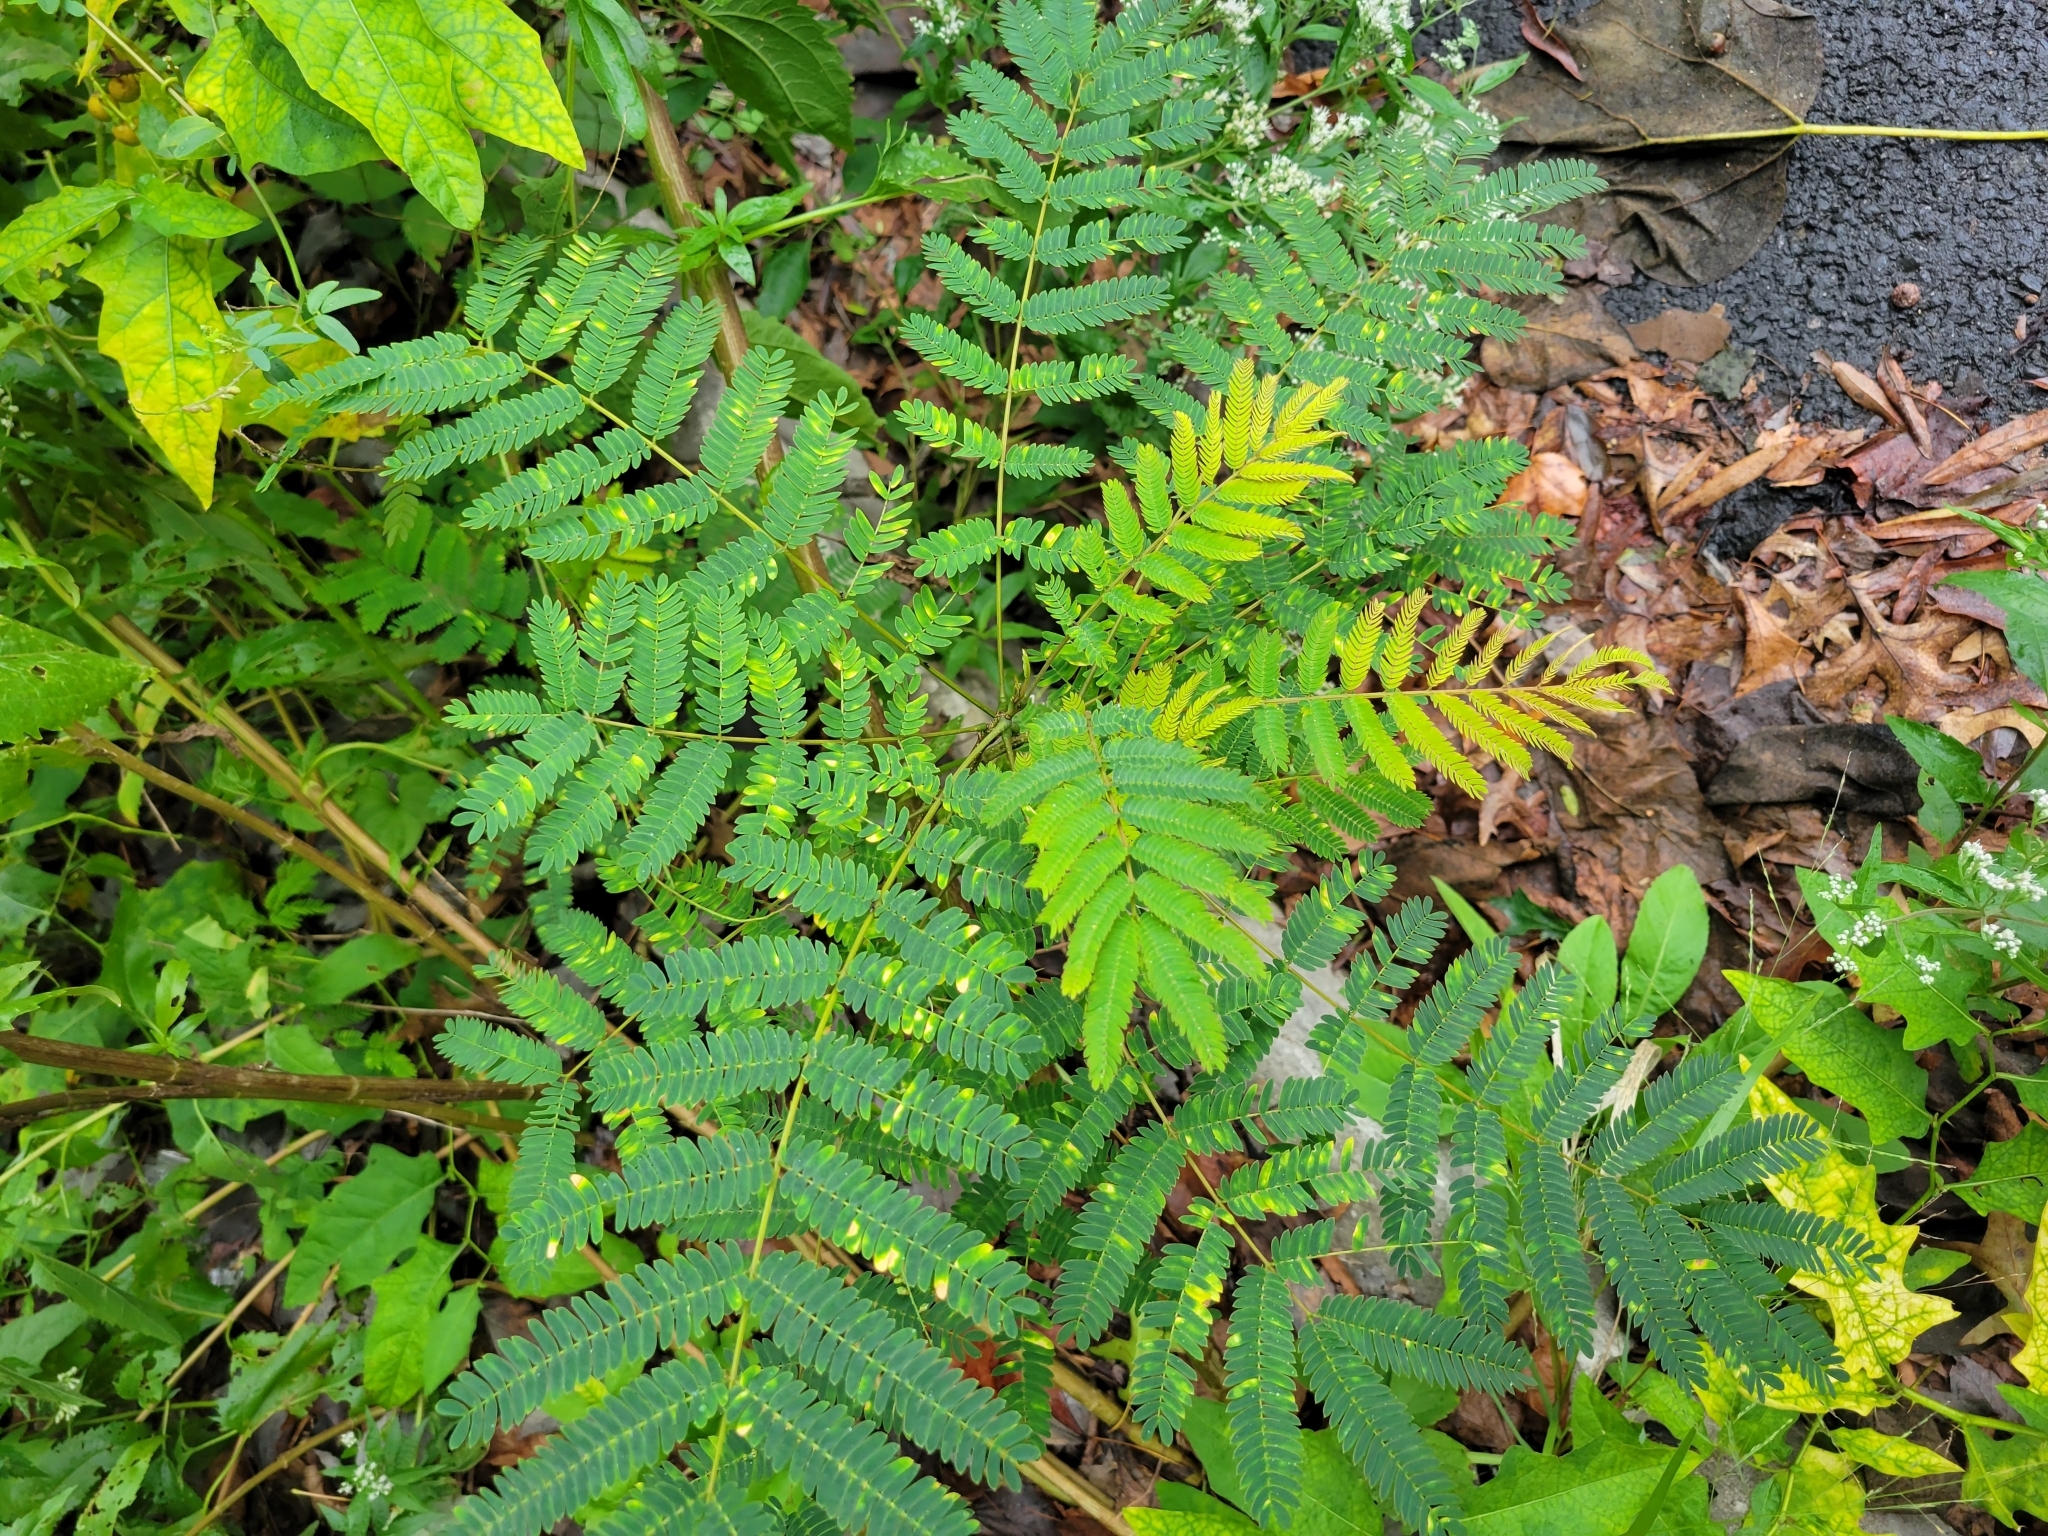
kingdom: Plantae
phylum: Tracheophyta
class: Magnoliopsida
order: Fabales
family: Fabaceae
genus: Albizia
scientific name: Albizia julibrissin
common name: Silktree
